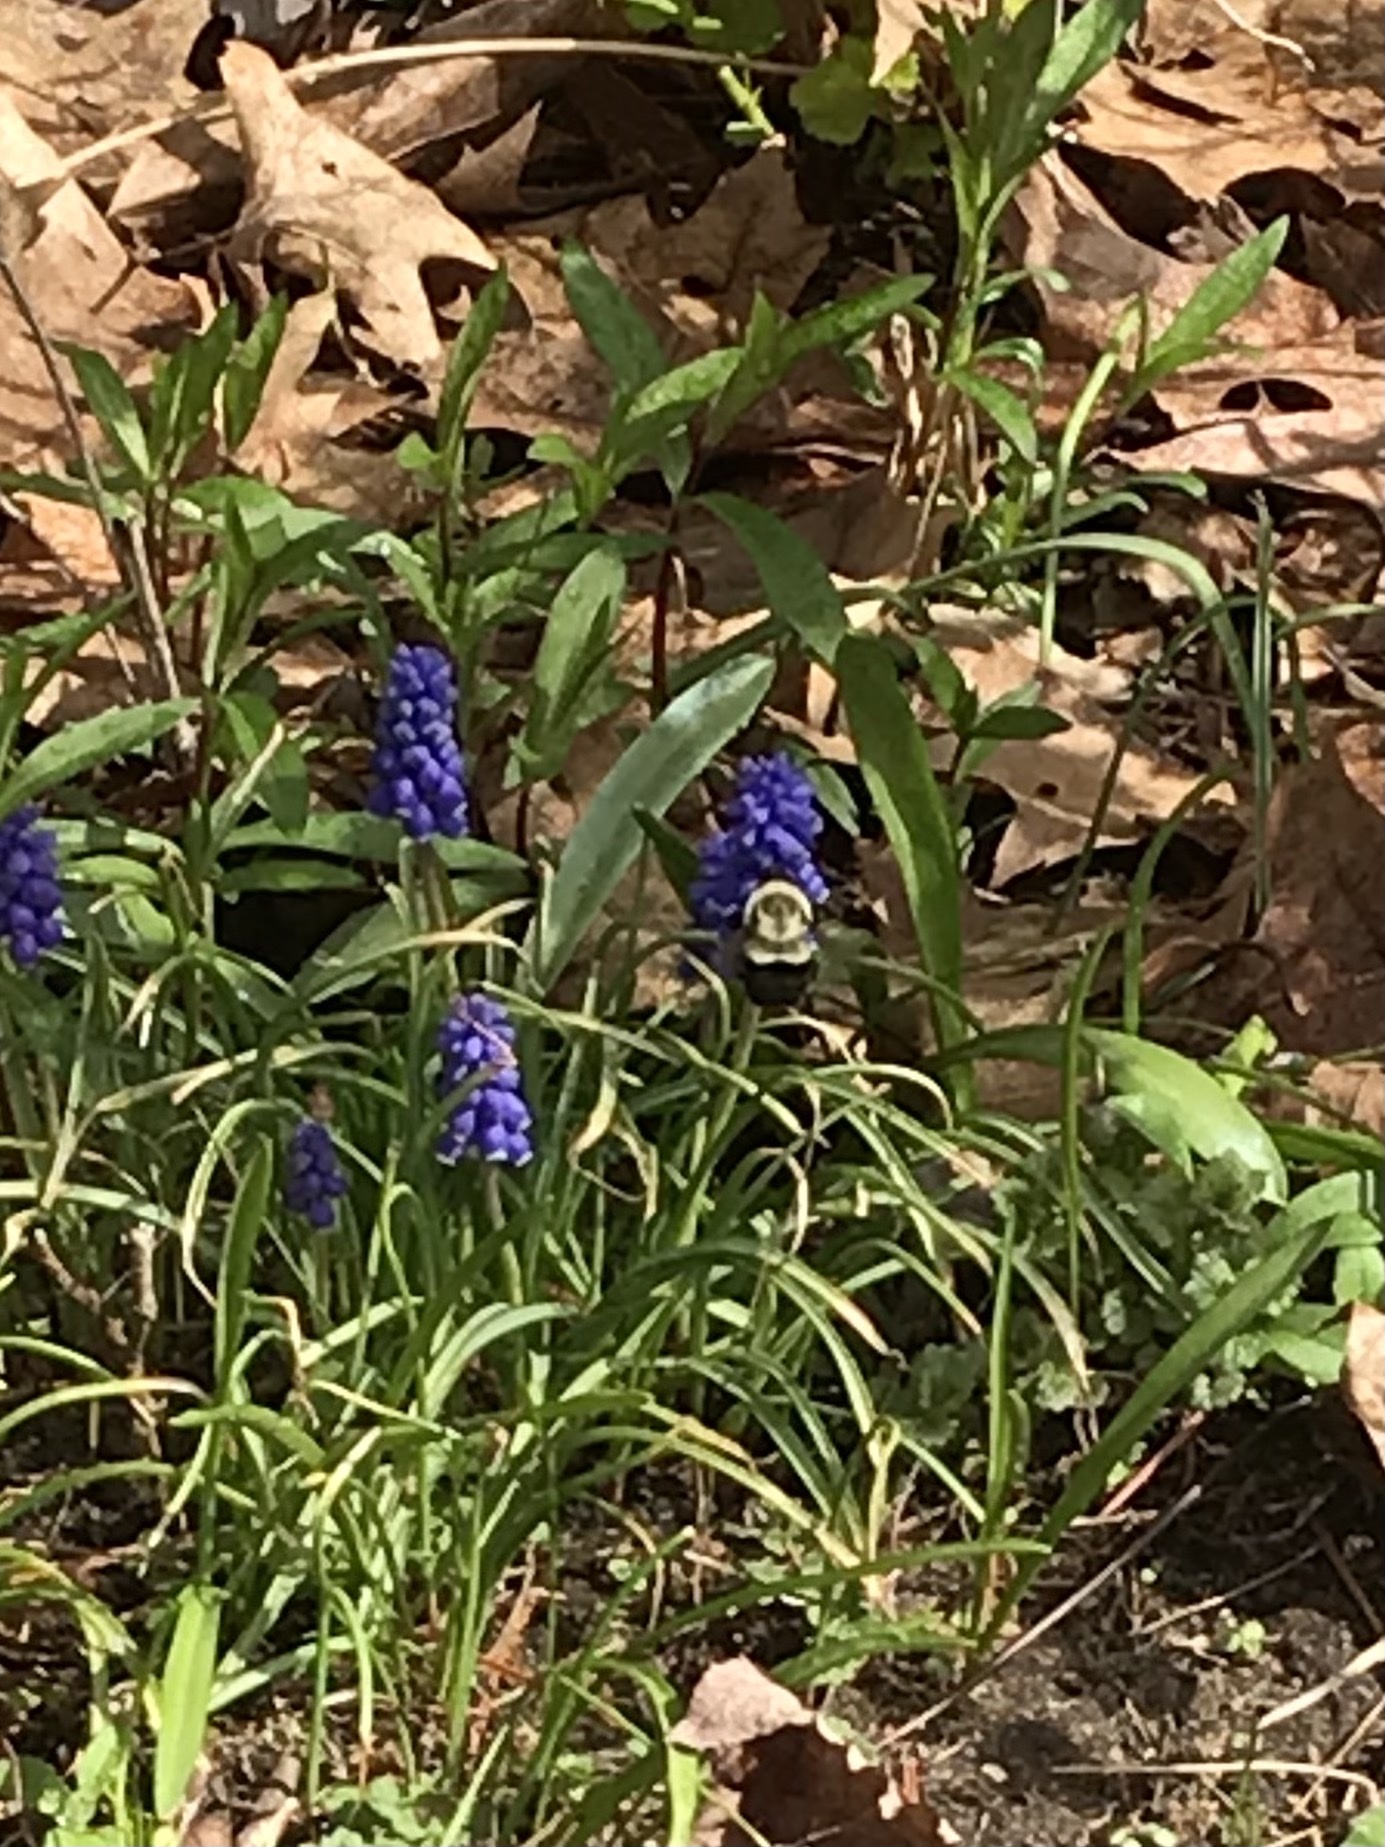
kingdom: Animalia
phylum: Arthropoda
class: Insecta
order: Hymenoptera
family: Apidae
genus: Bombus
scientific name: Bombus impatiens
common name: Common eastern bumble bee
